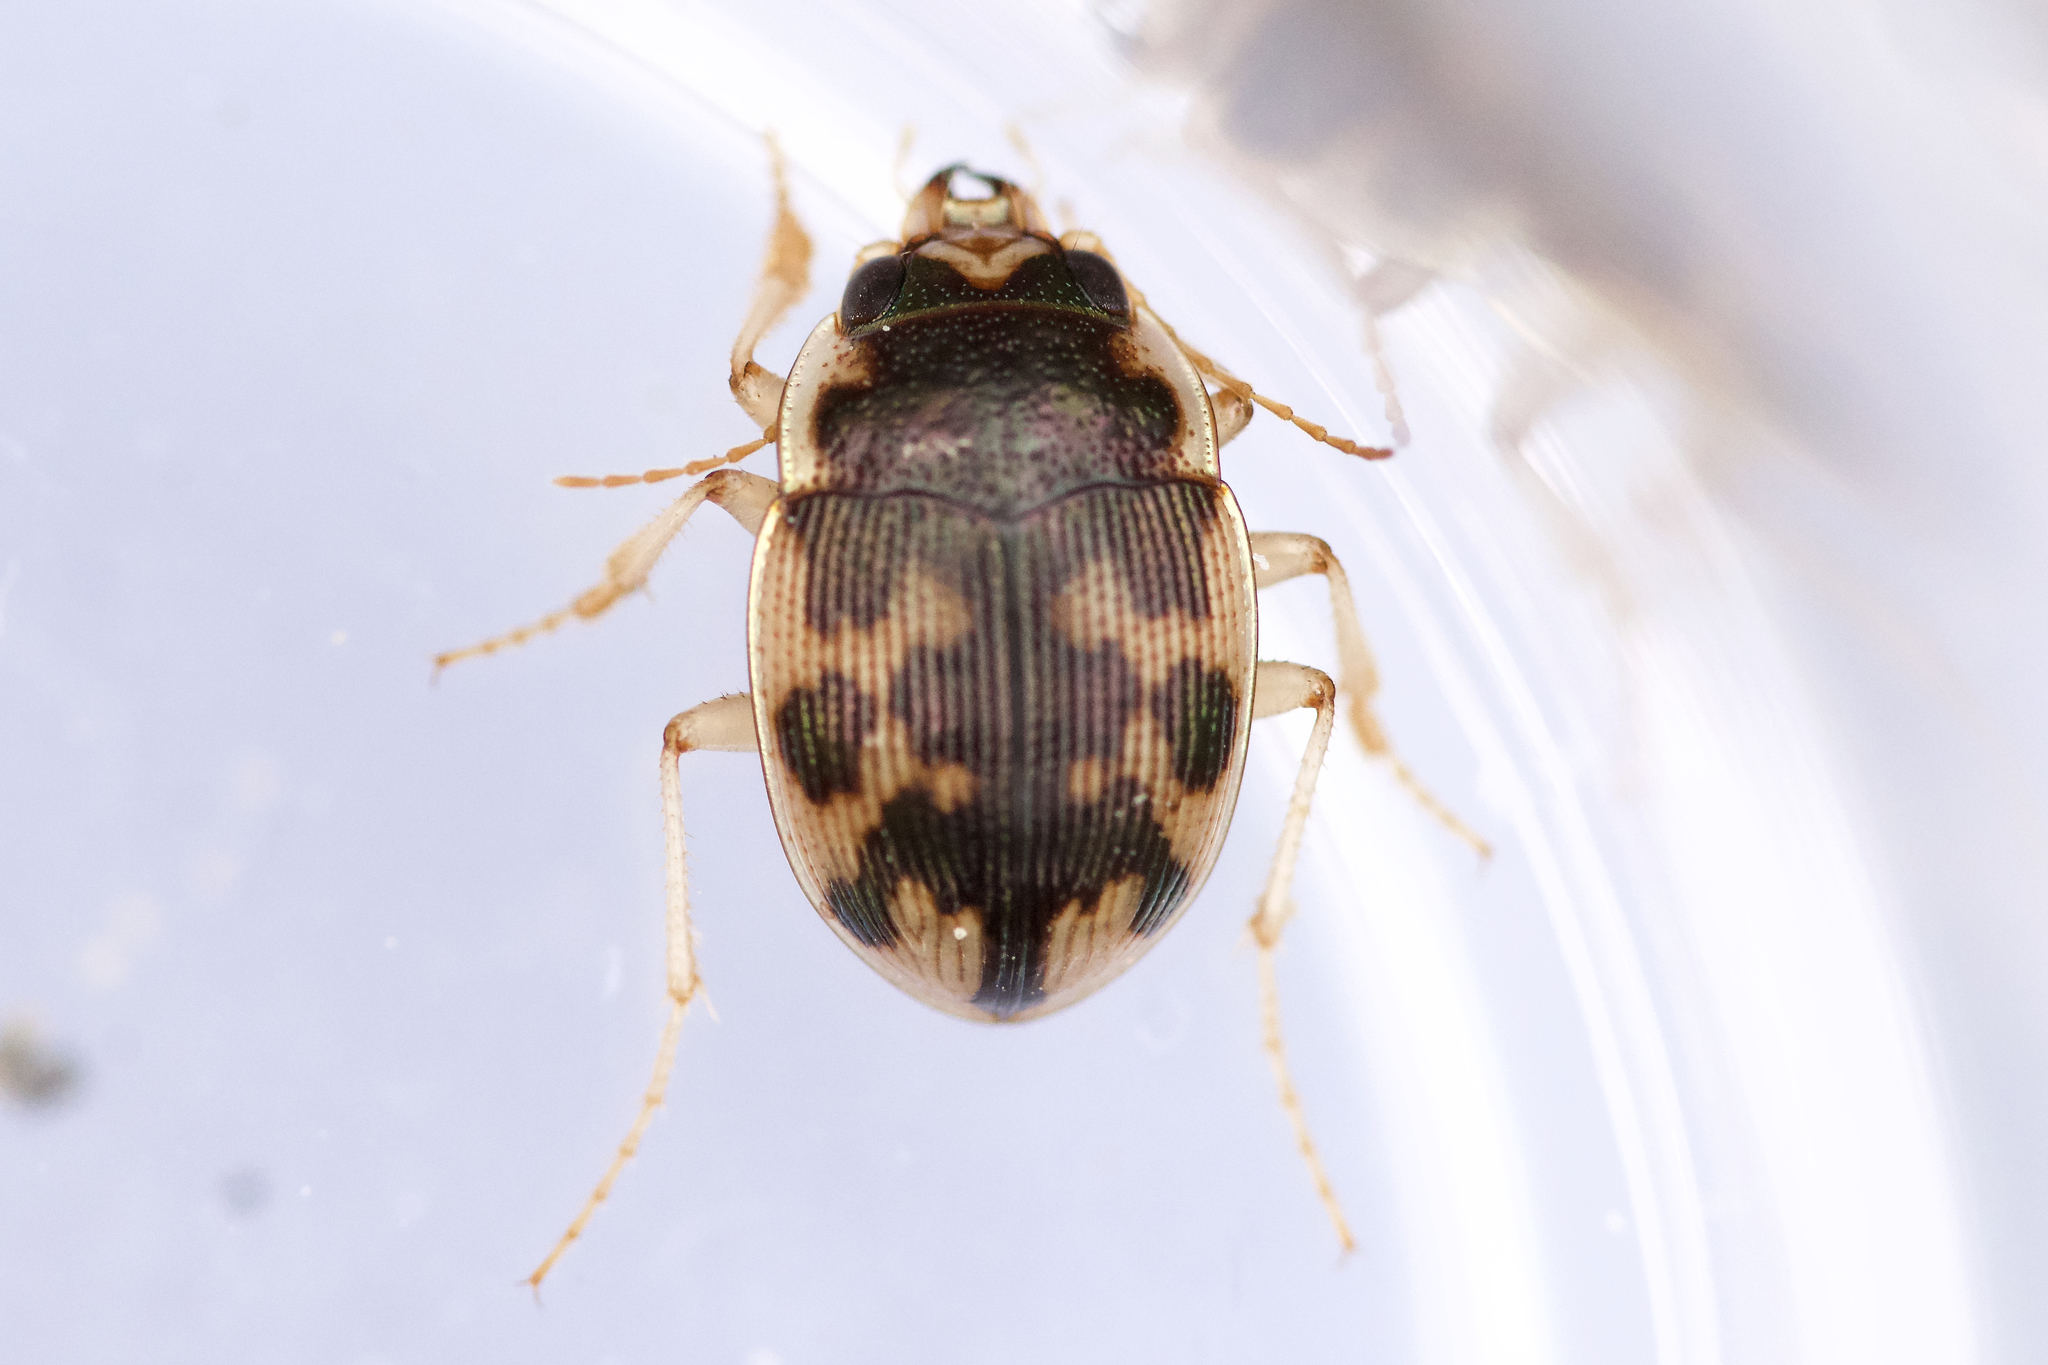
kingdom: Animalia
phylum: Arthropoda
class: Insecta
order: Coleoptera
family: Carabidae
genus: Omophron
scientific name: Omophron americanum
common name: American round sand beetle
